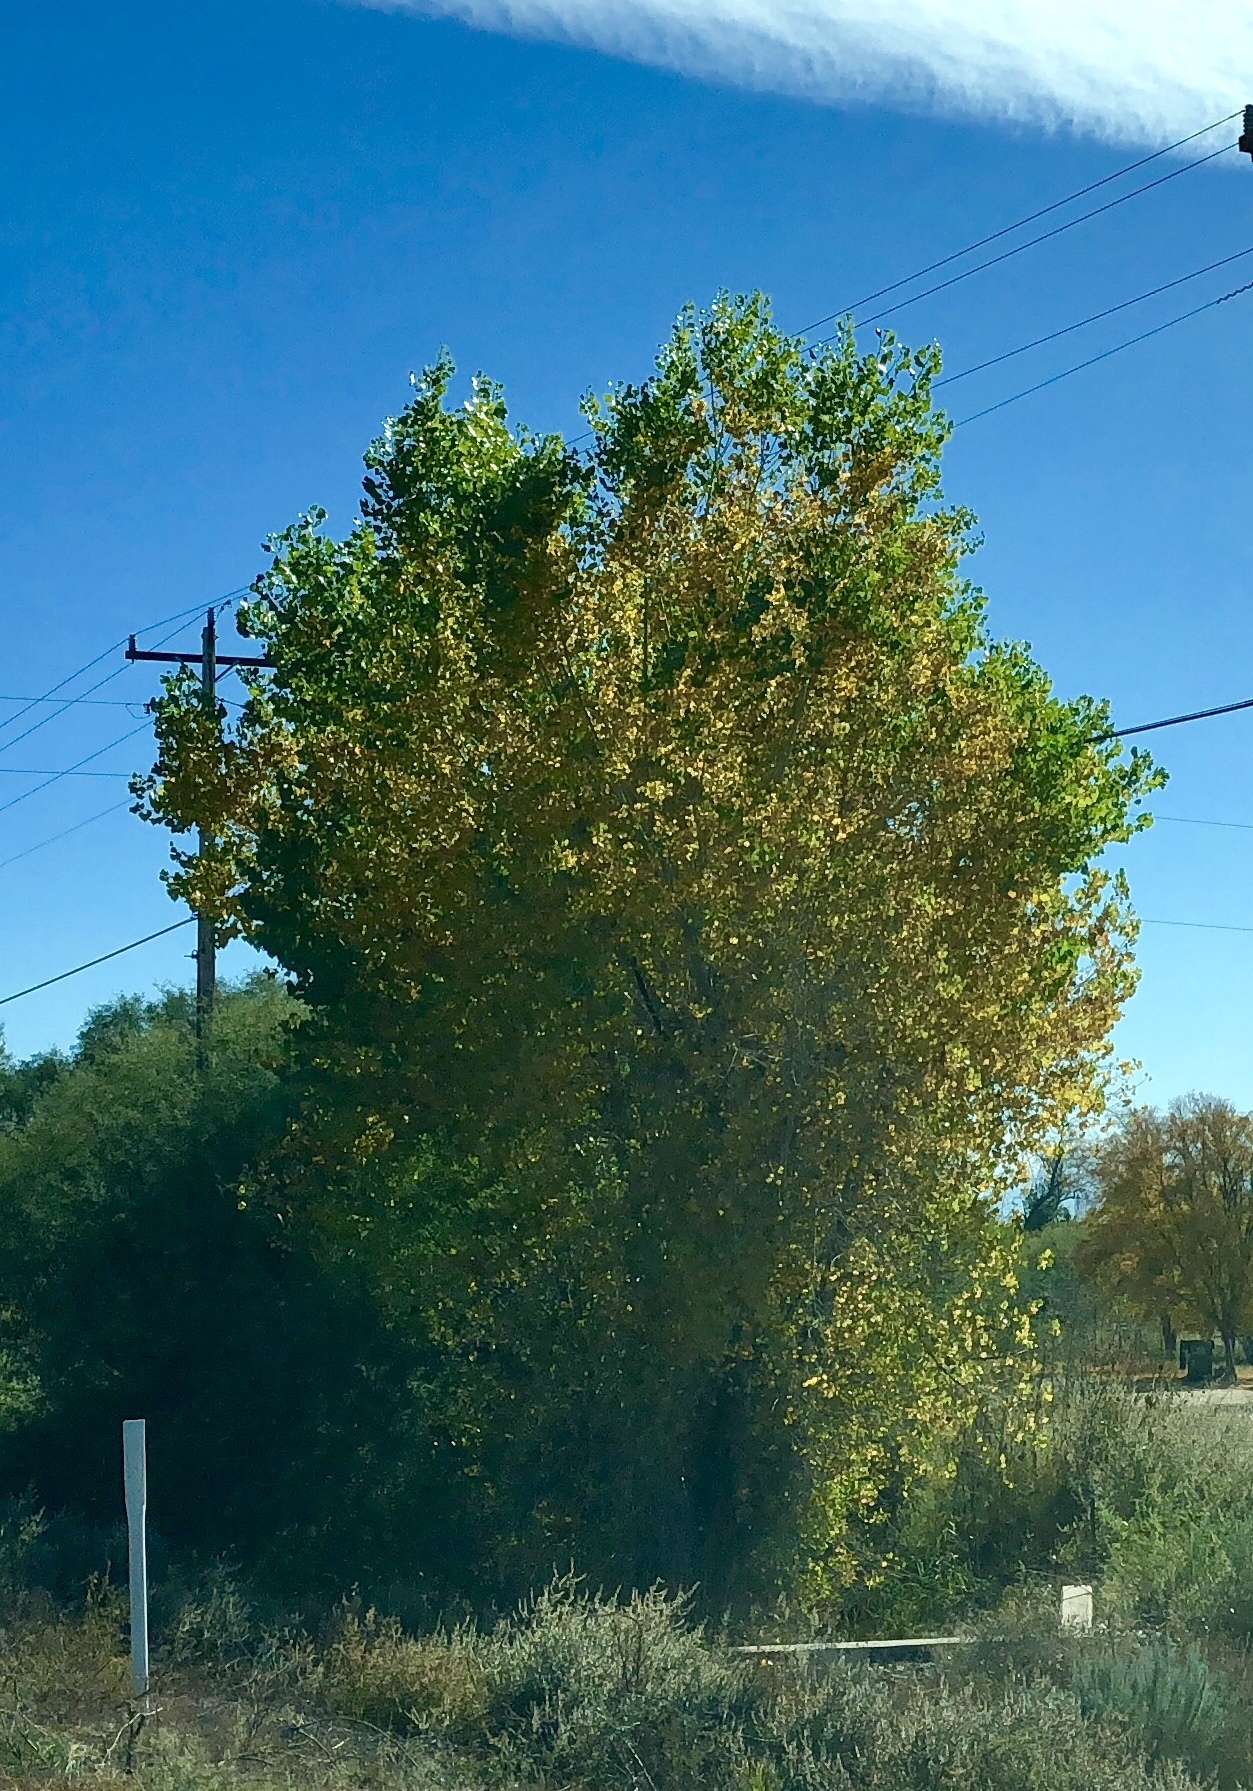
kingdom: Plantae
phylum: Tracheophyta
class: Magnoliopsida
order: Malpighiales
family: Salicaceae
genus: Populus
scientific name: Populus fremontii
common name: Fremont's cottonwood
